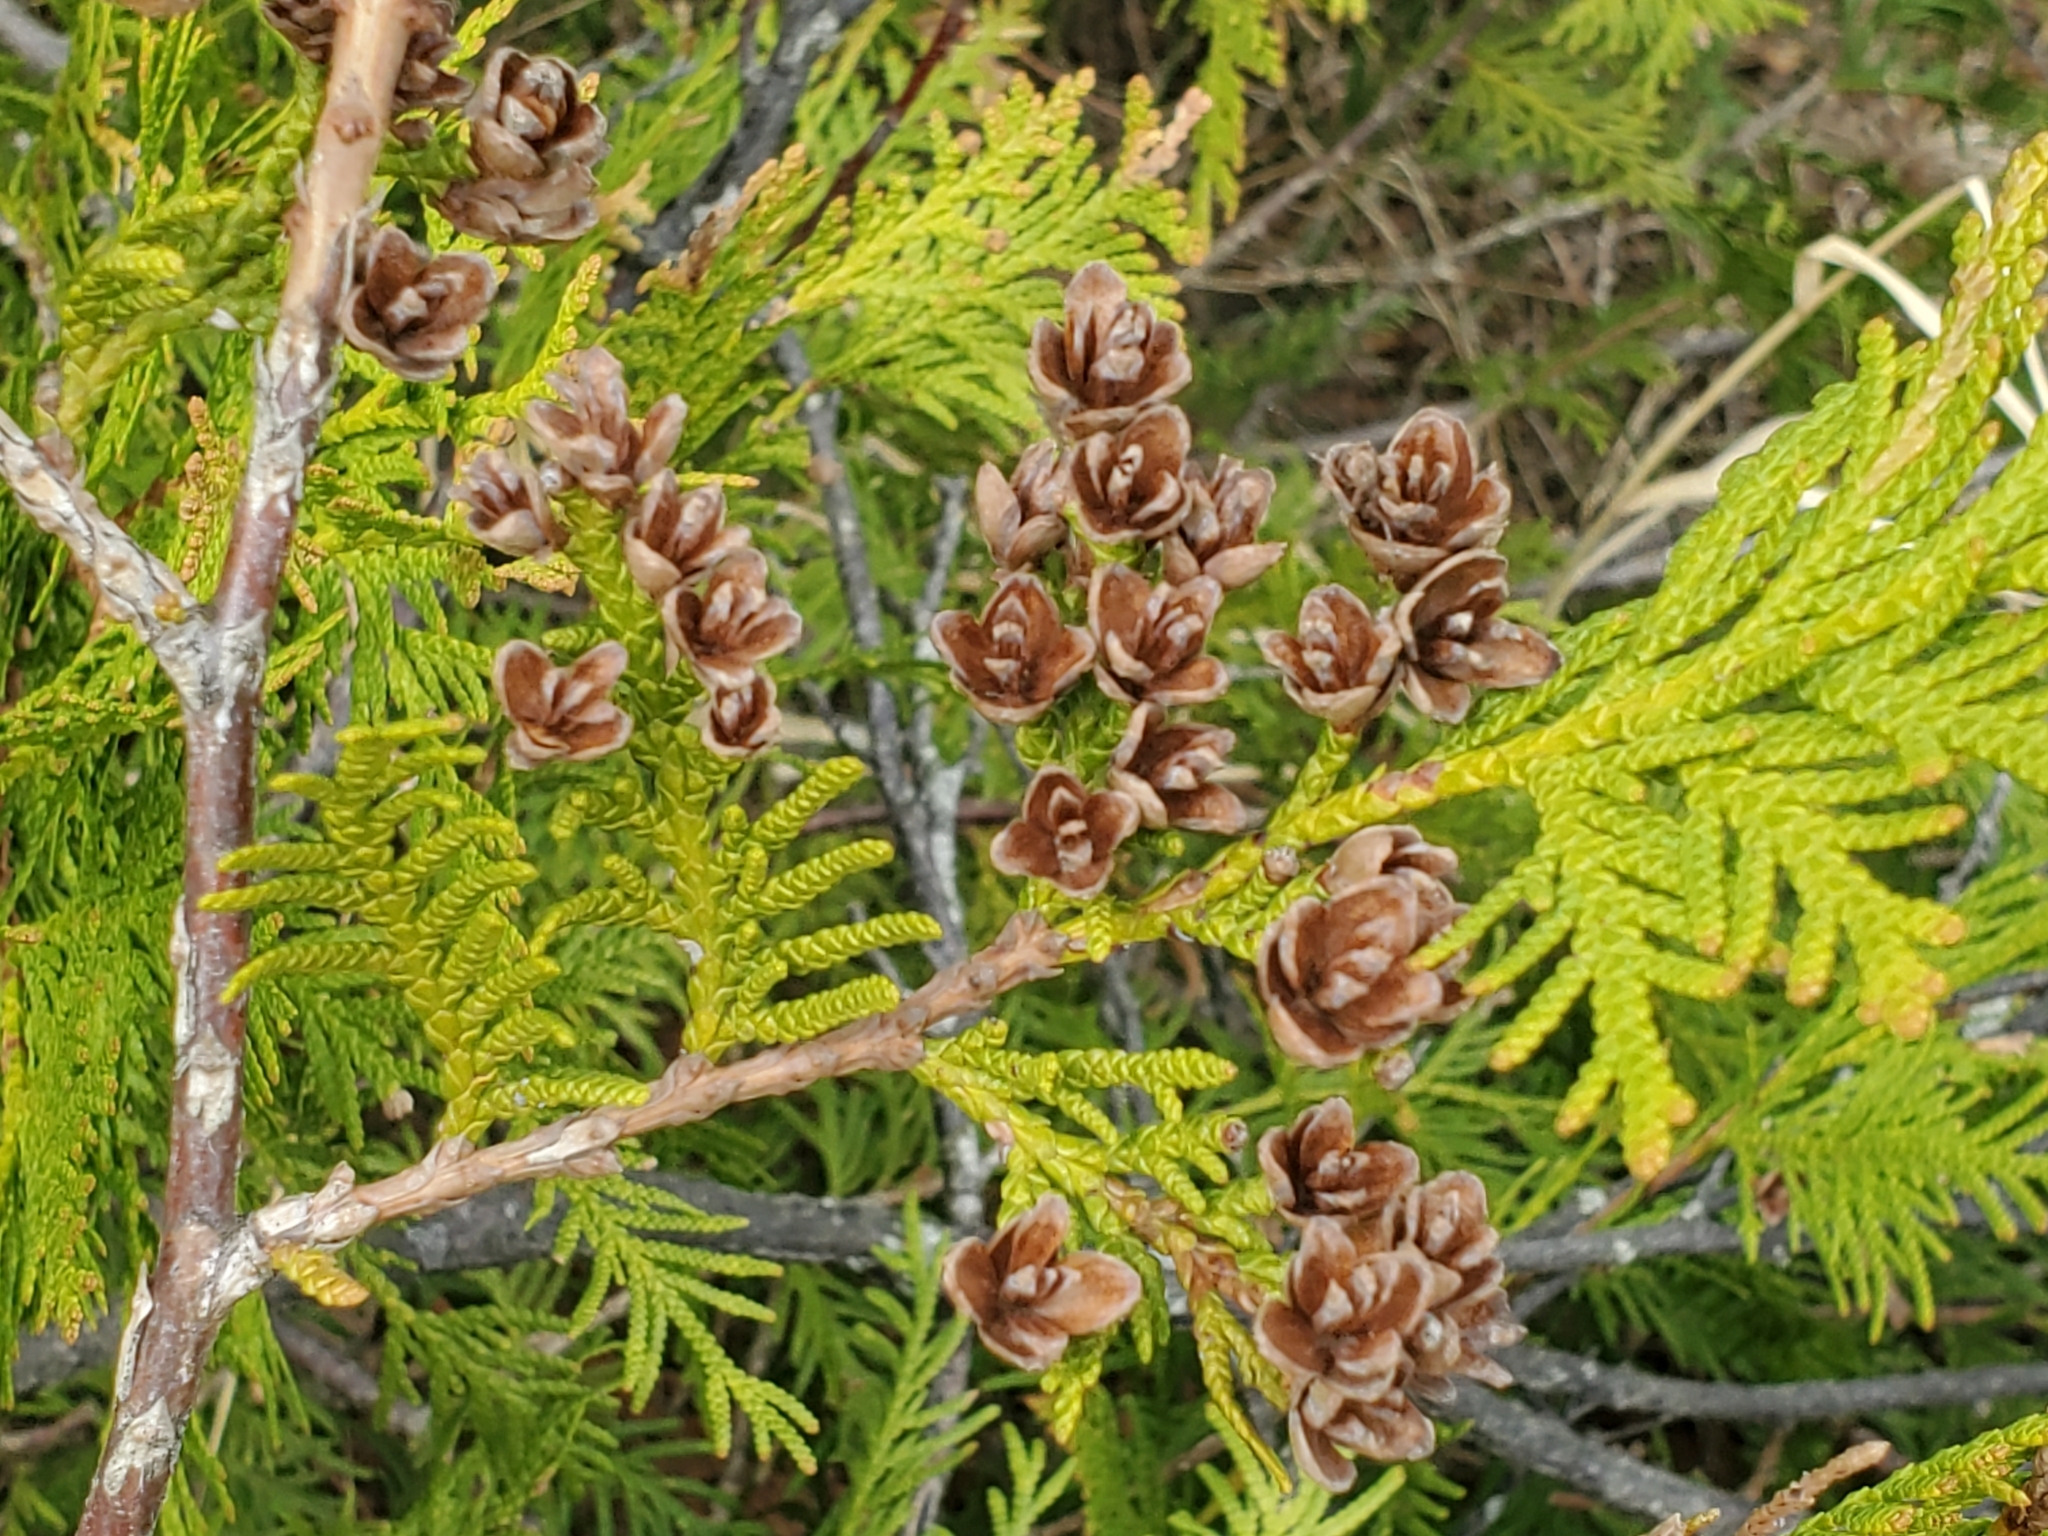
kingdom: Plantae
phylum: Tracheophyta
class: Pinopsida
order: Pinales
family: Cupressaceae
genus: Thuja
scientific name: Thuja occidentalis
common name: Northern white-cedar
